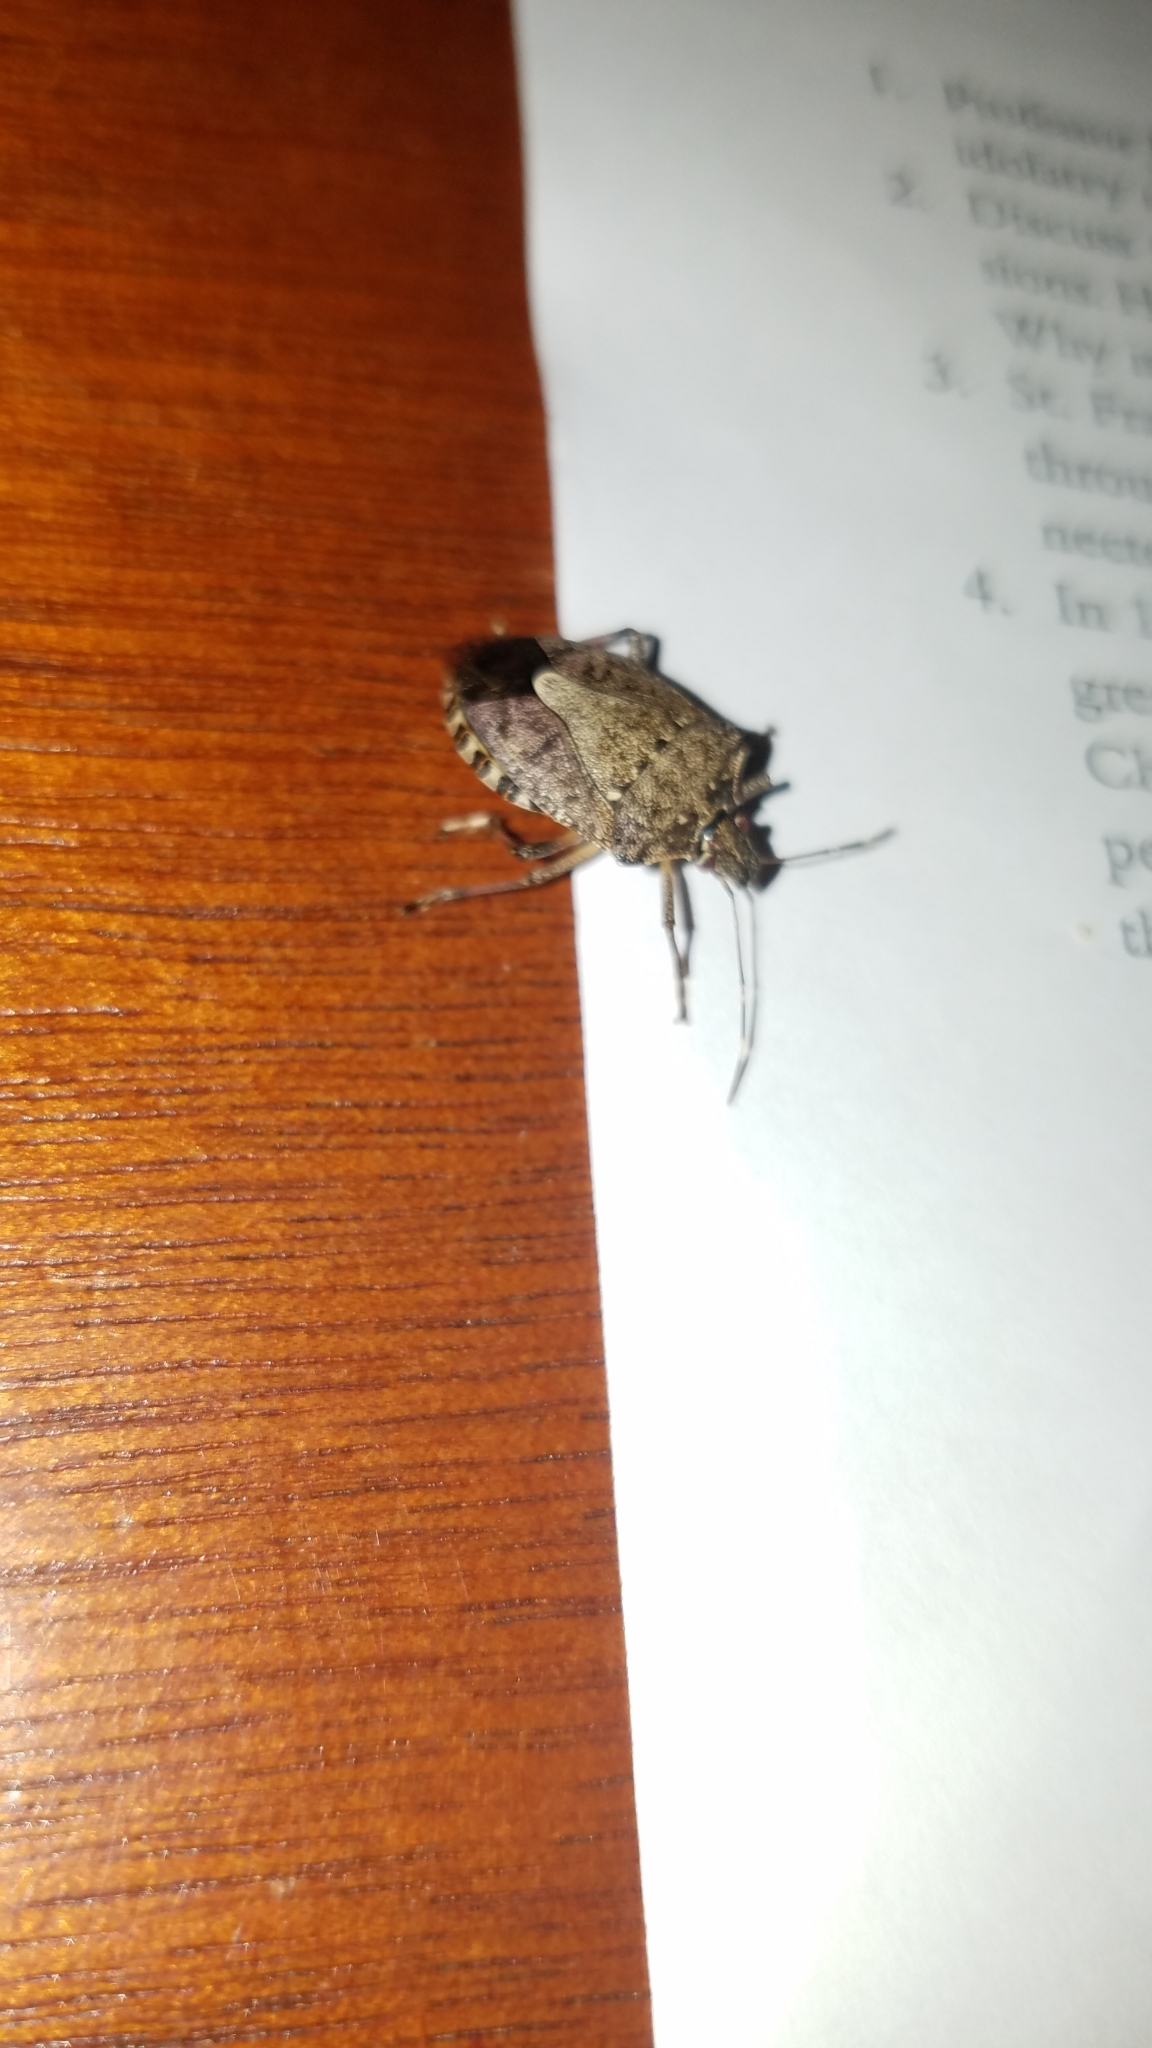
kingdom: Animalia
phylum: Arthropoda
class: Insecta
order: Hemiptera
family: Pentatomidae
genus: Halyomorpha
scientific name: Halyomorpha halys
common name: Brown marmorated stink bug
